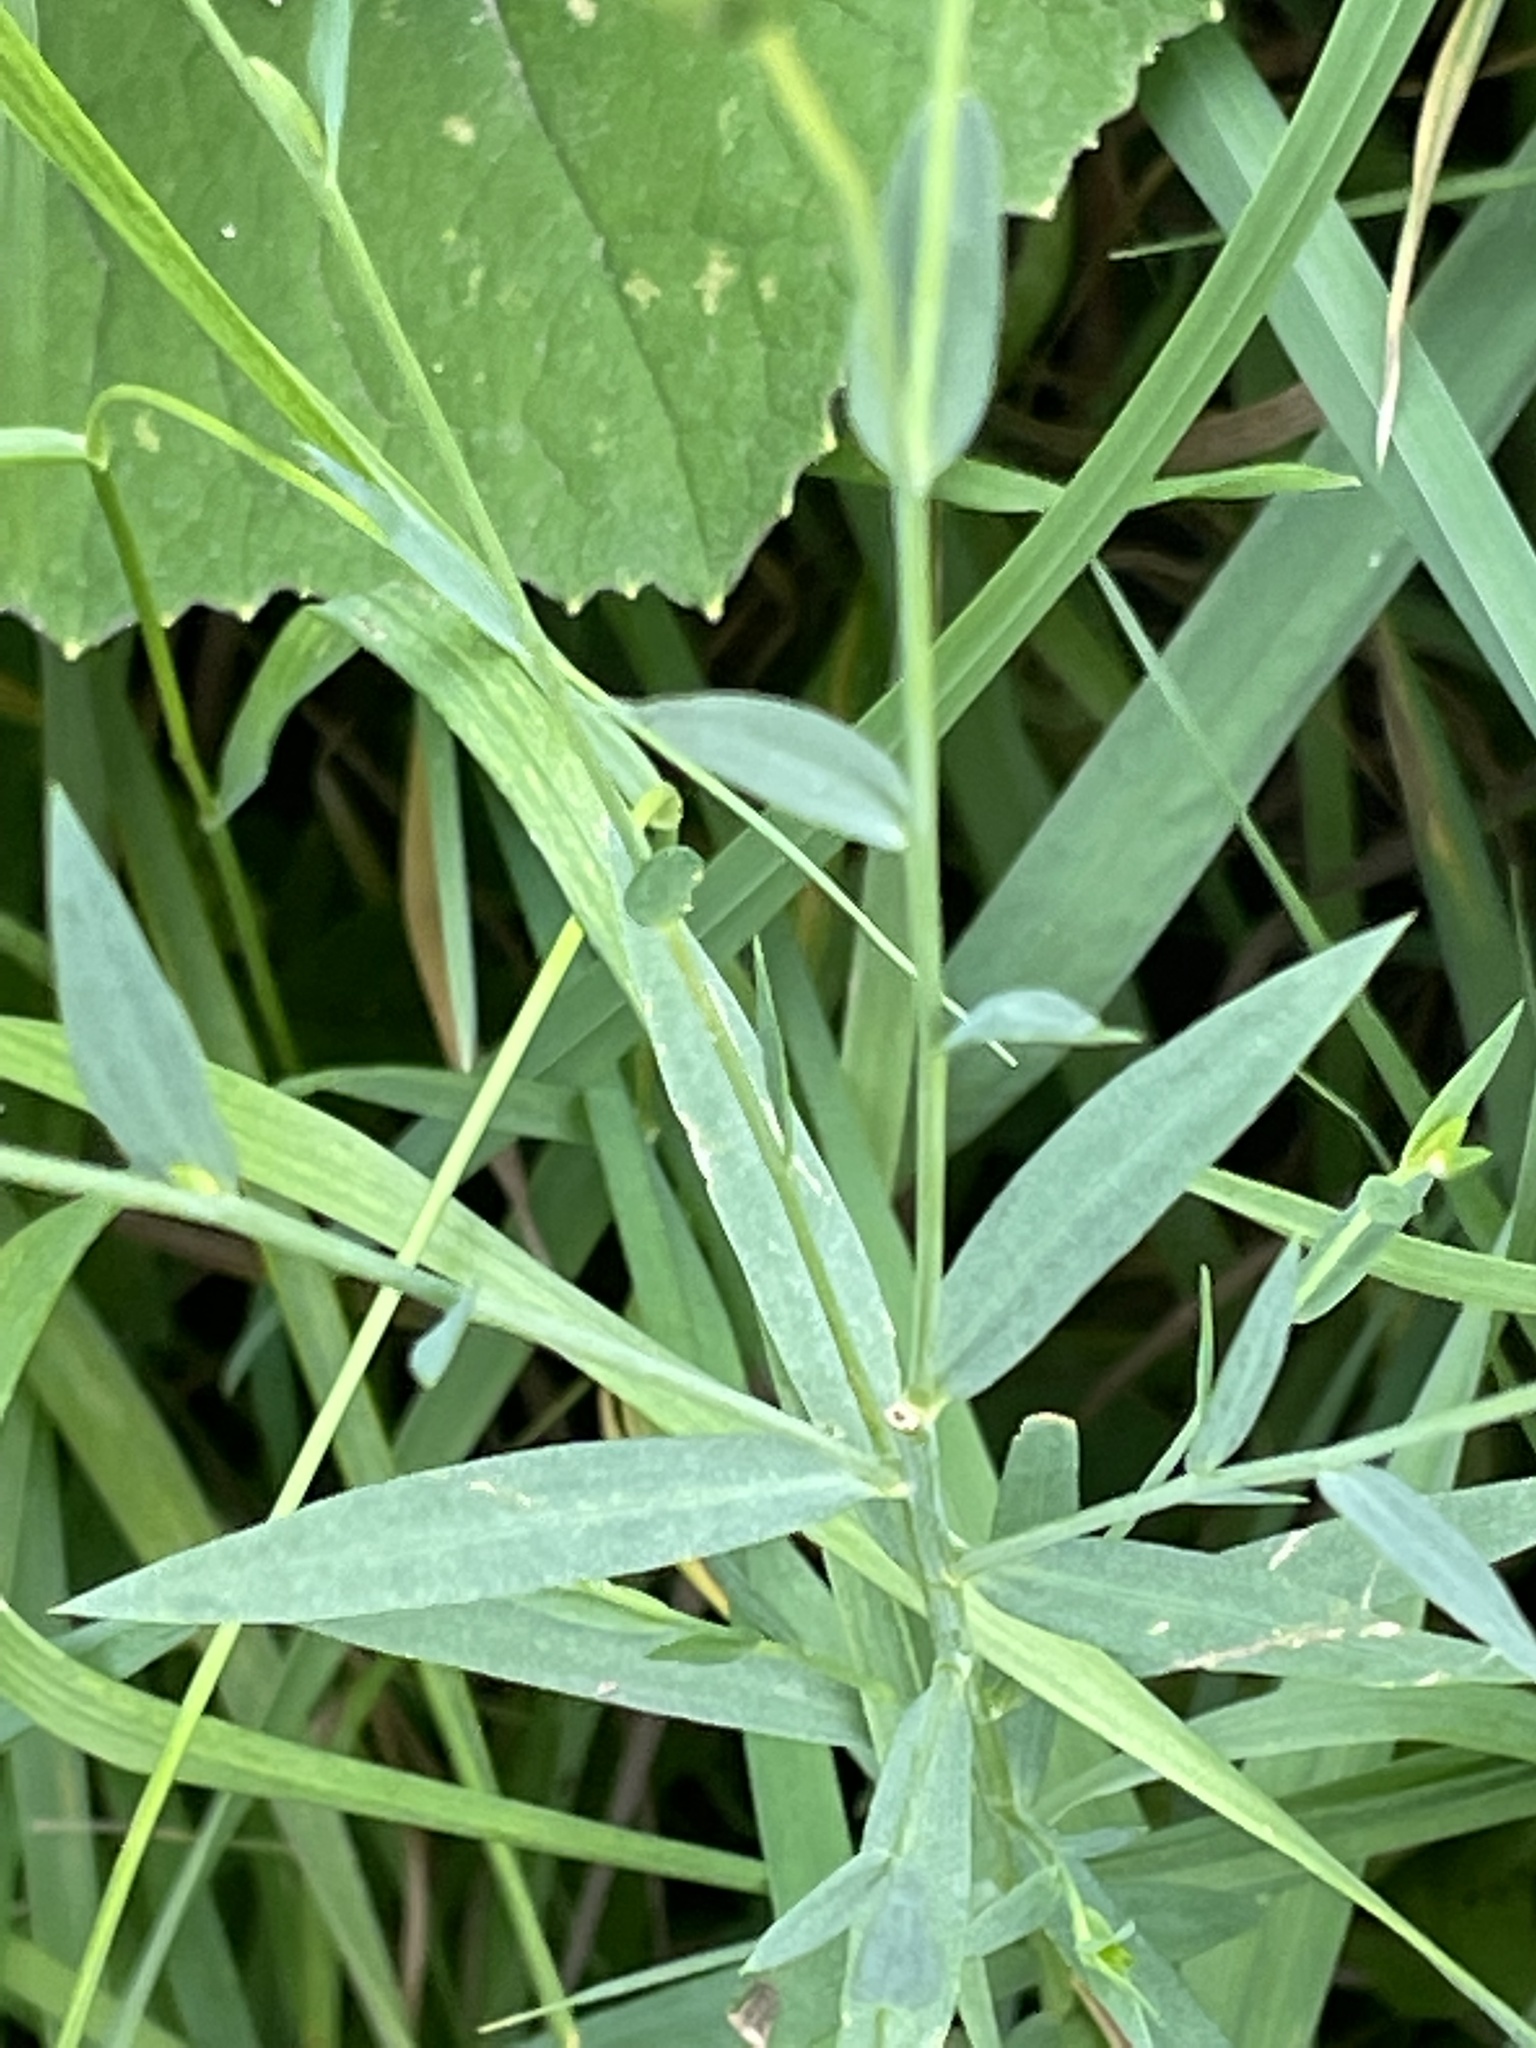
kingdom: Plantae
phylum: Tracheophyta
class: Magnoliopsida
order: Malpighiales
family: Linaceae
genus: Linum
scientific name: Linum usitatissimum
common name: Flax
